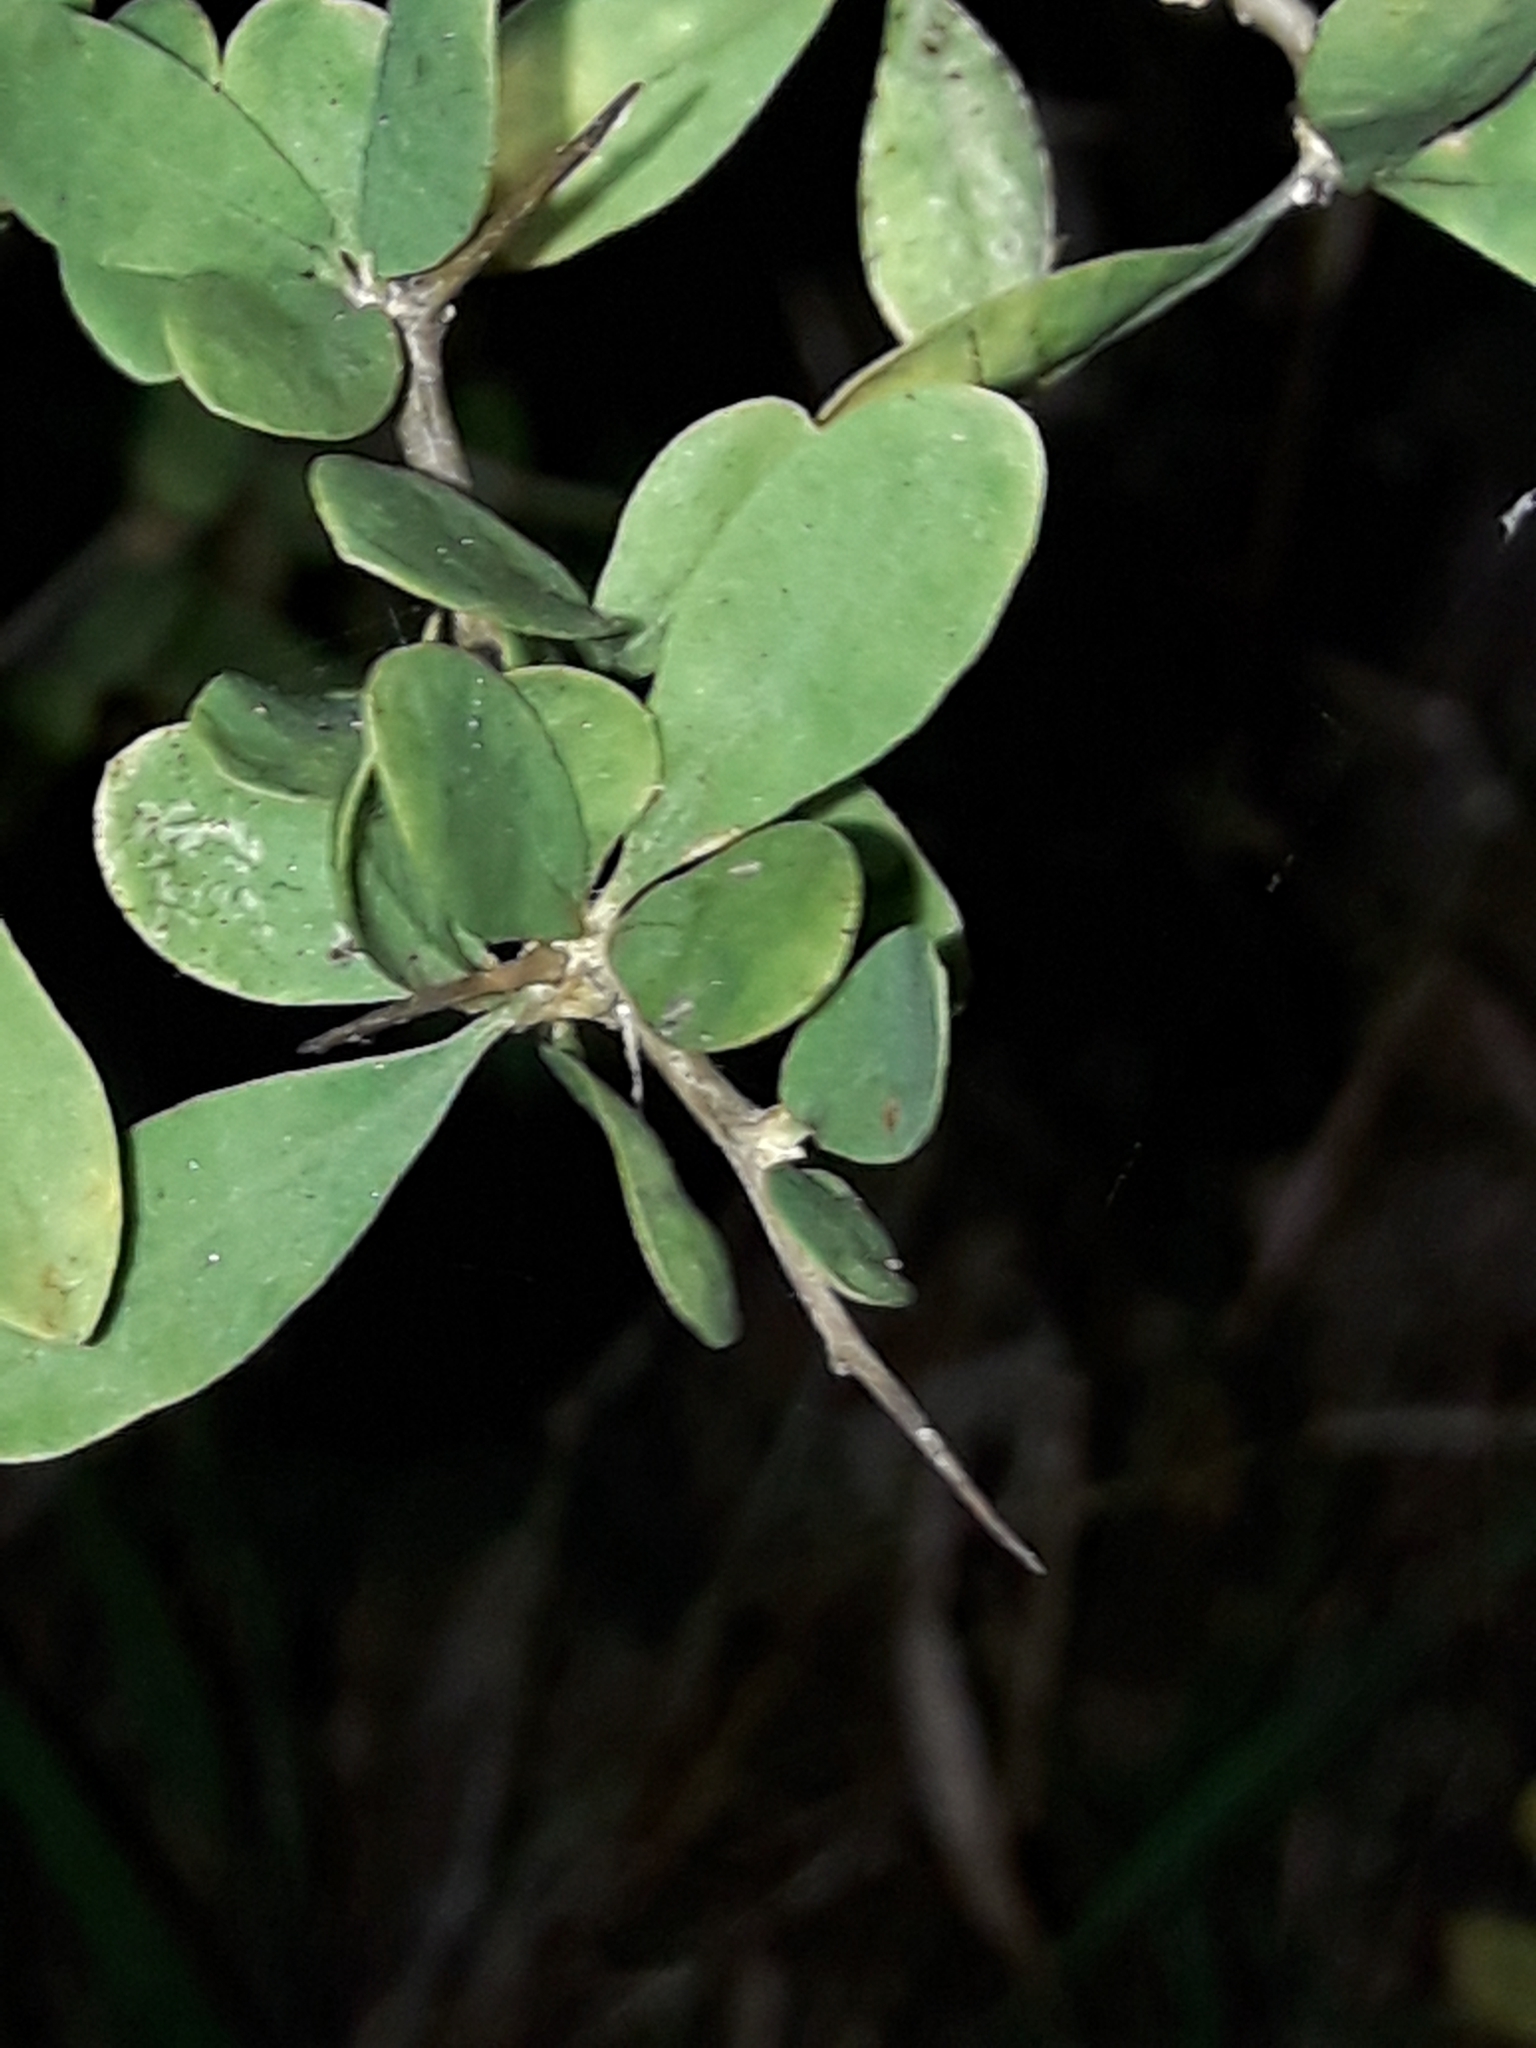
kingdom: Plantae
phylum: Tracheophyta
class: Magnoliopsida
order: Solanales
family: Solanaceae
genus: Lycium
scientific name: Lycium ferocissimum
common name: African boxthorn
